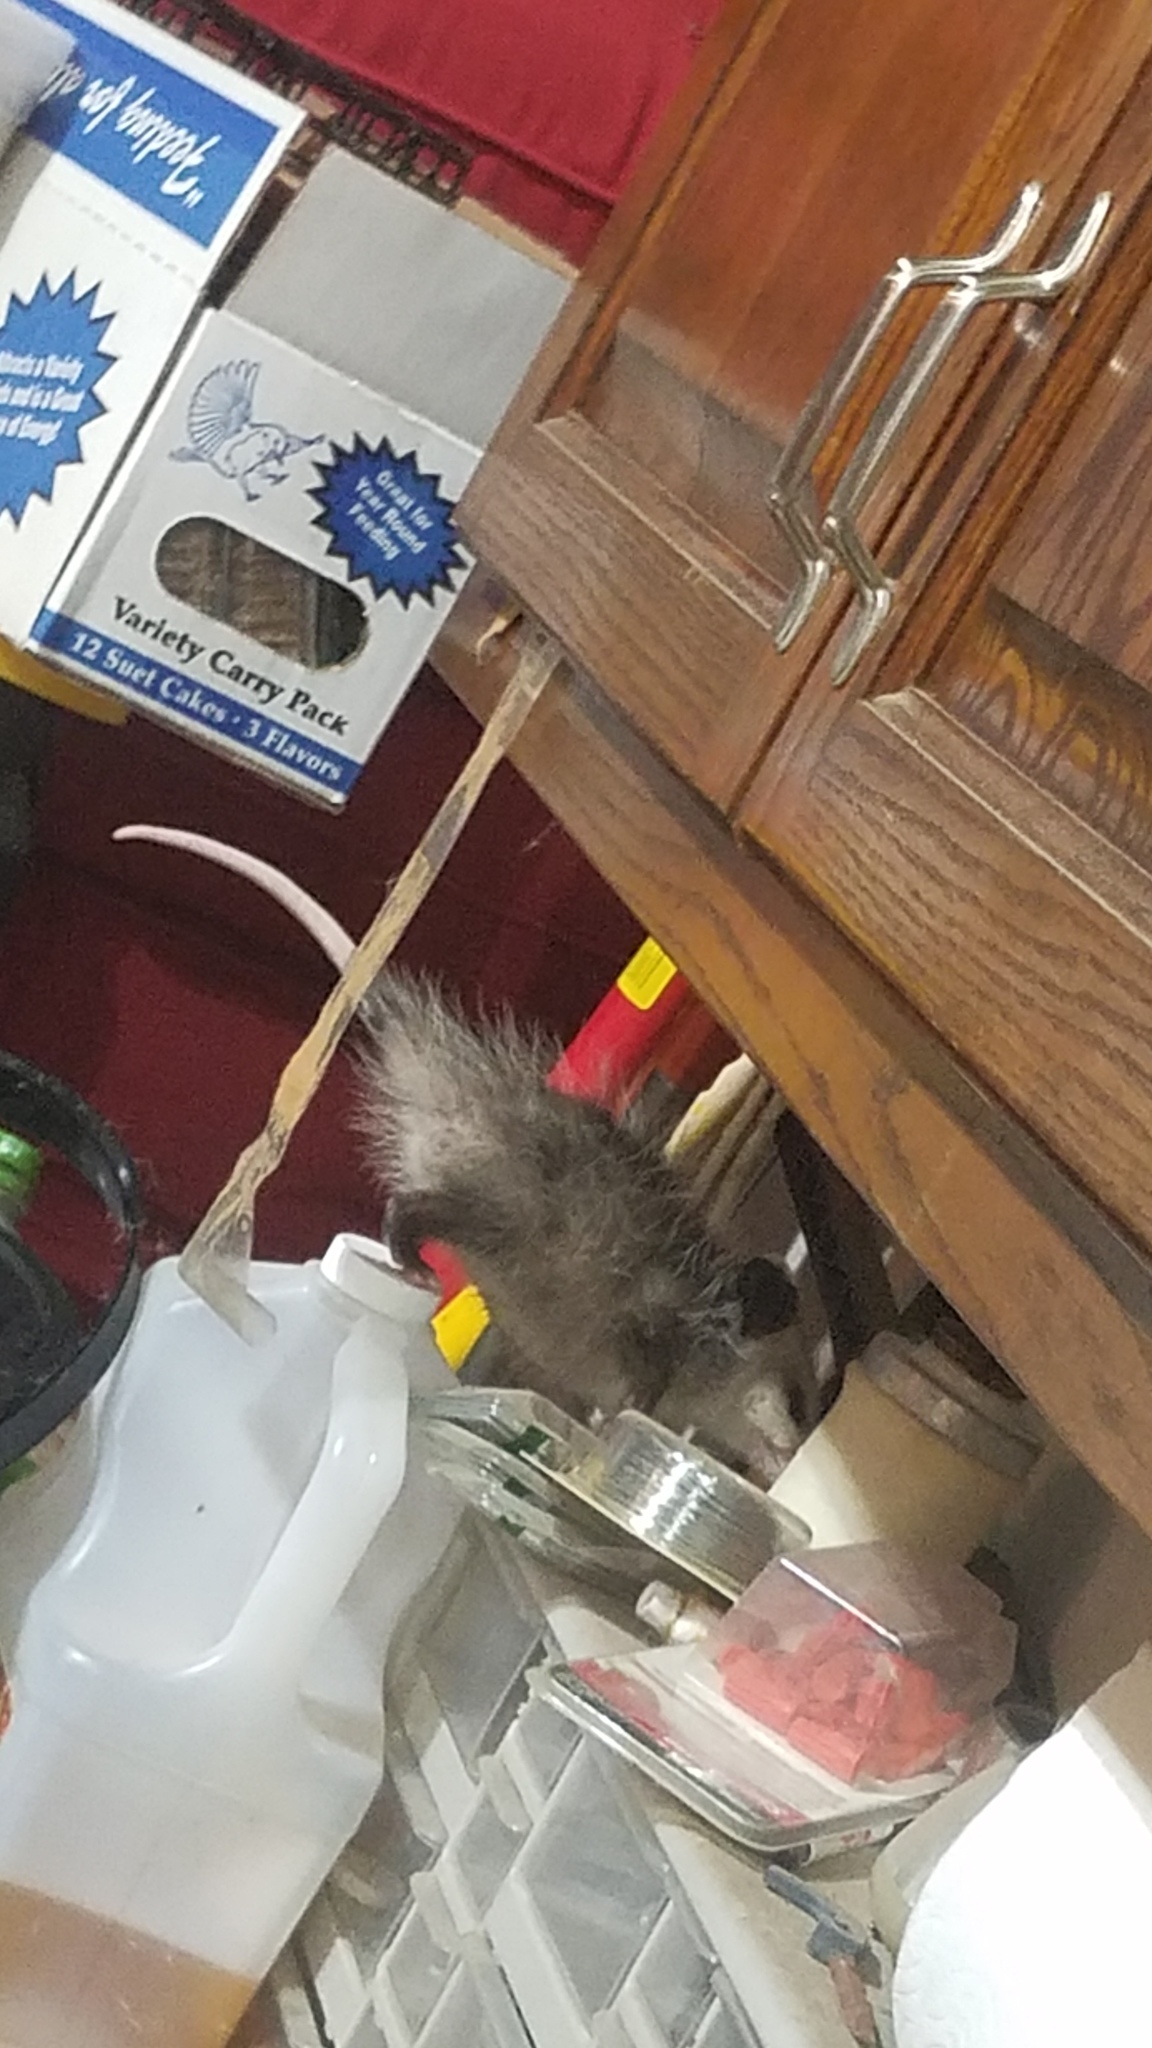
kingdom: Animalia
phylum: Chordata
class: Mammalia
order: Didelphimorphia
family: Didelphidae
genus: Didelphis
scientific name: Didelphis virginiana
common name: Virginia opossum
